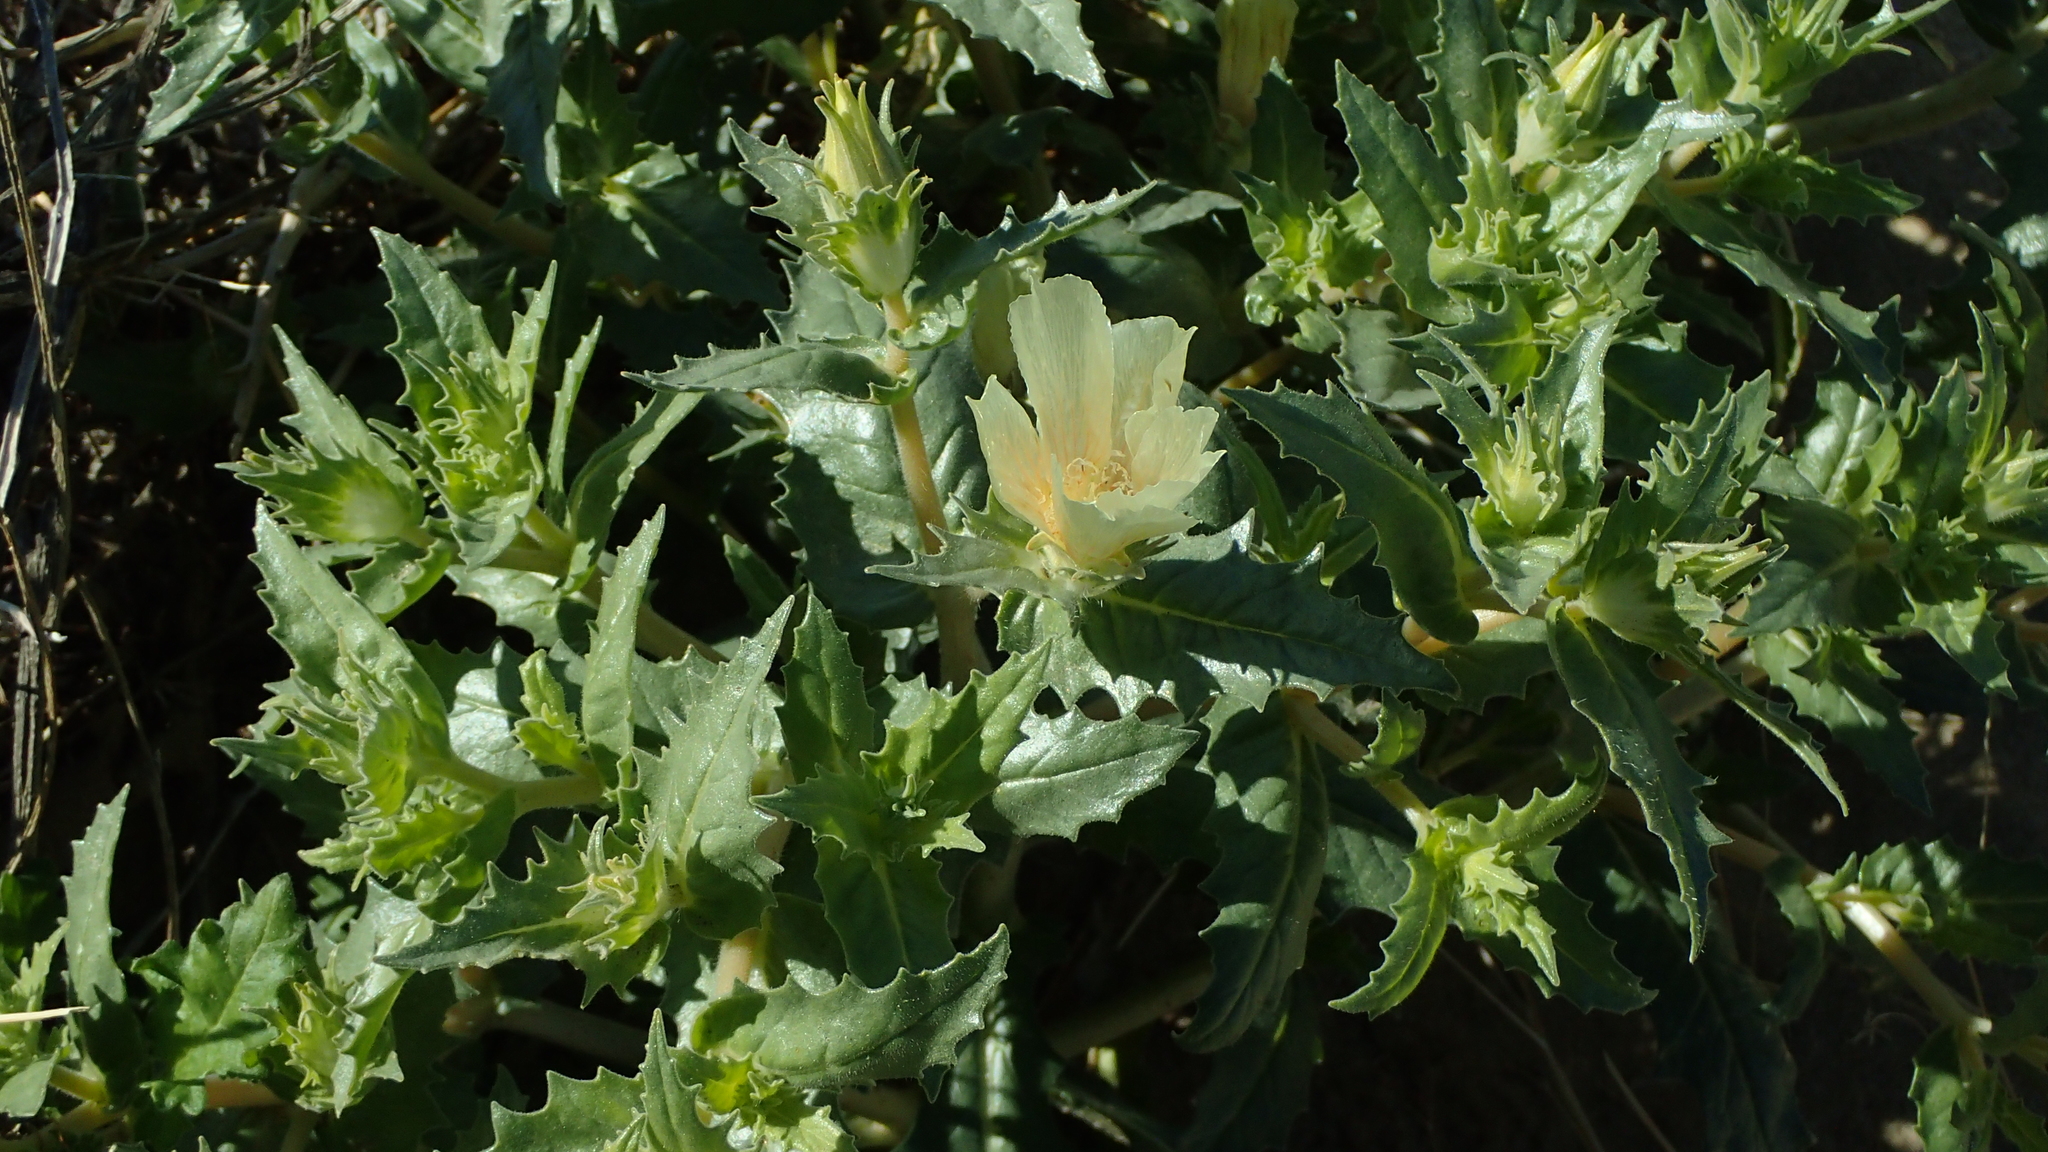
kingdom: Plantae
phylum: Tracheophyta
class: Magnoliopsida
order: Cornales
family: Loasaceae
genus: Mentzelia
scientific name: Mentzelia involucrata
